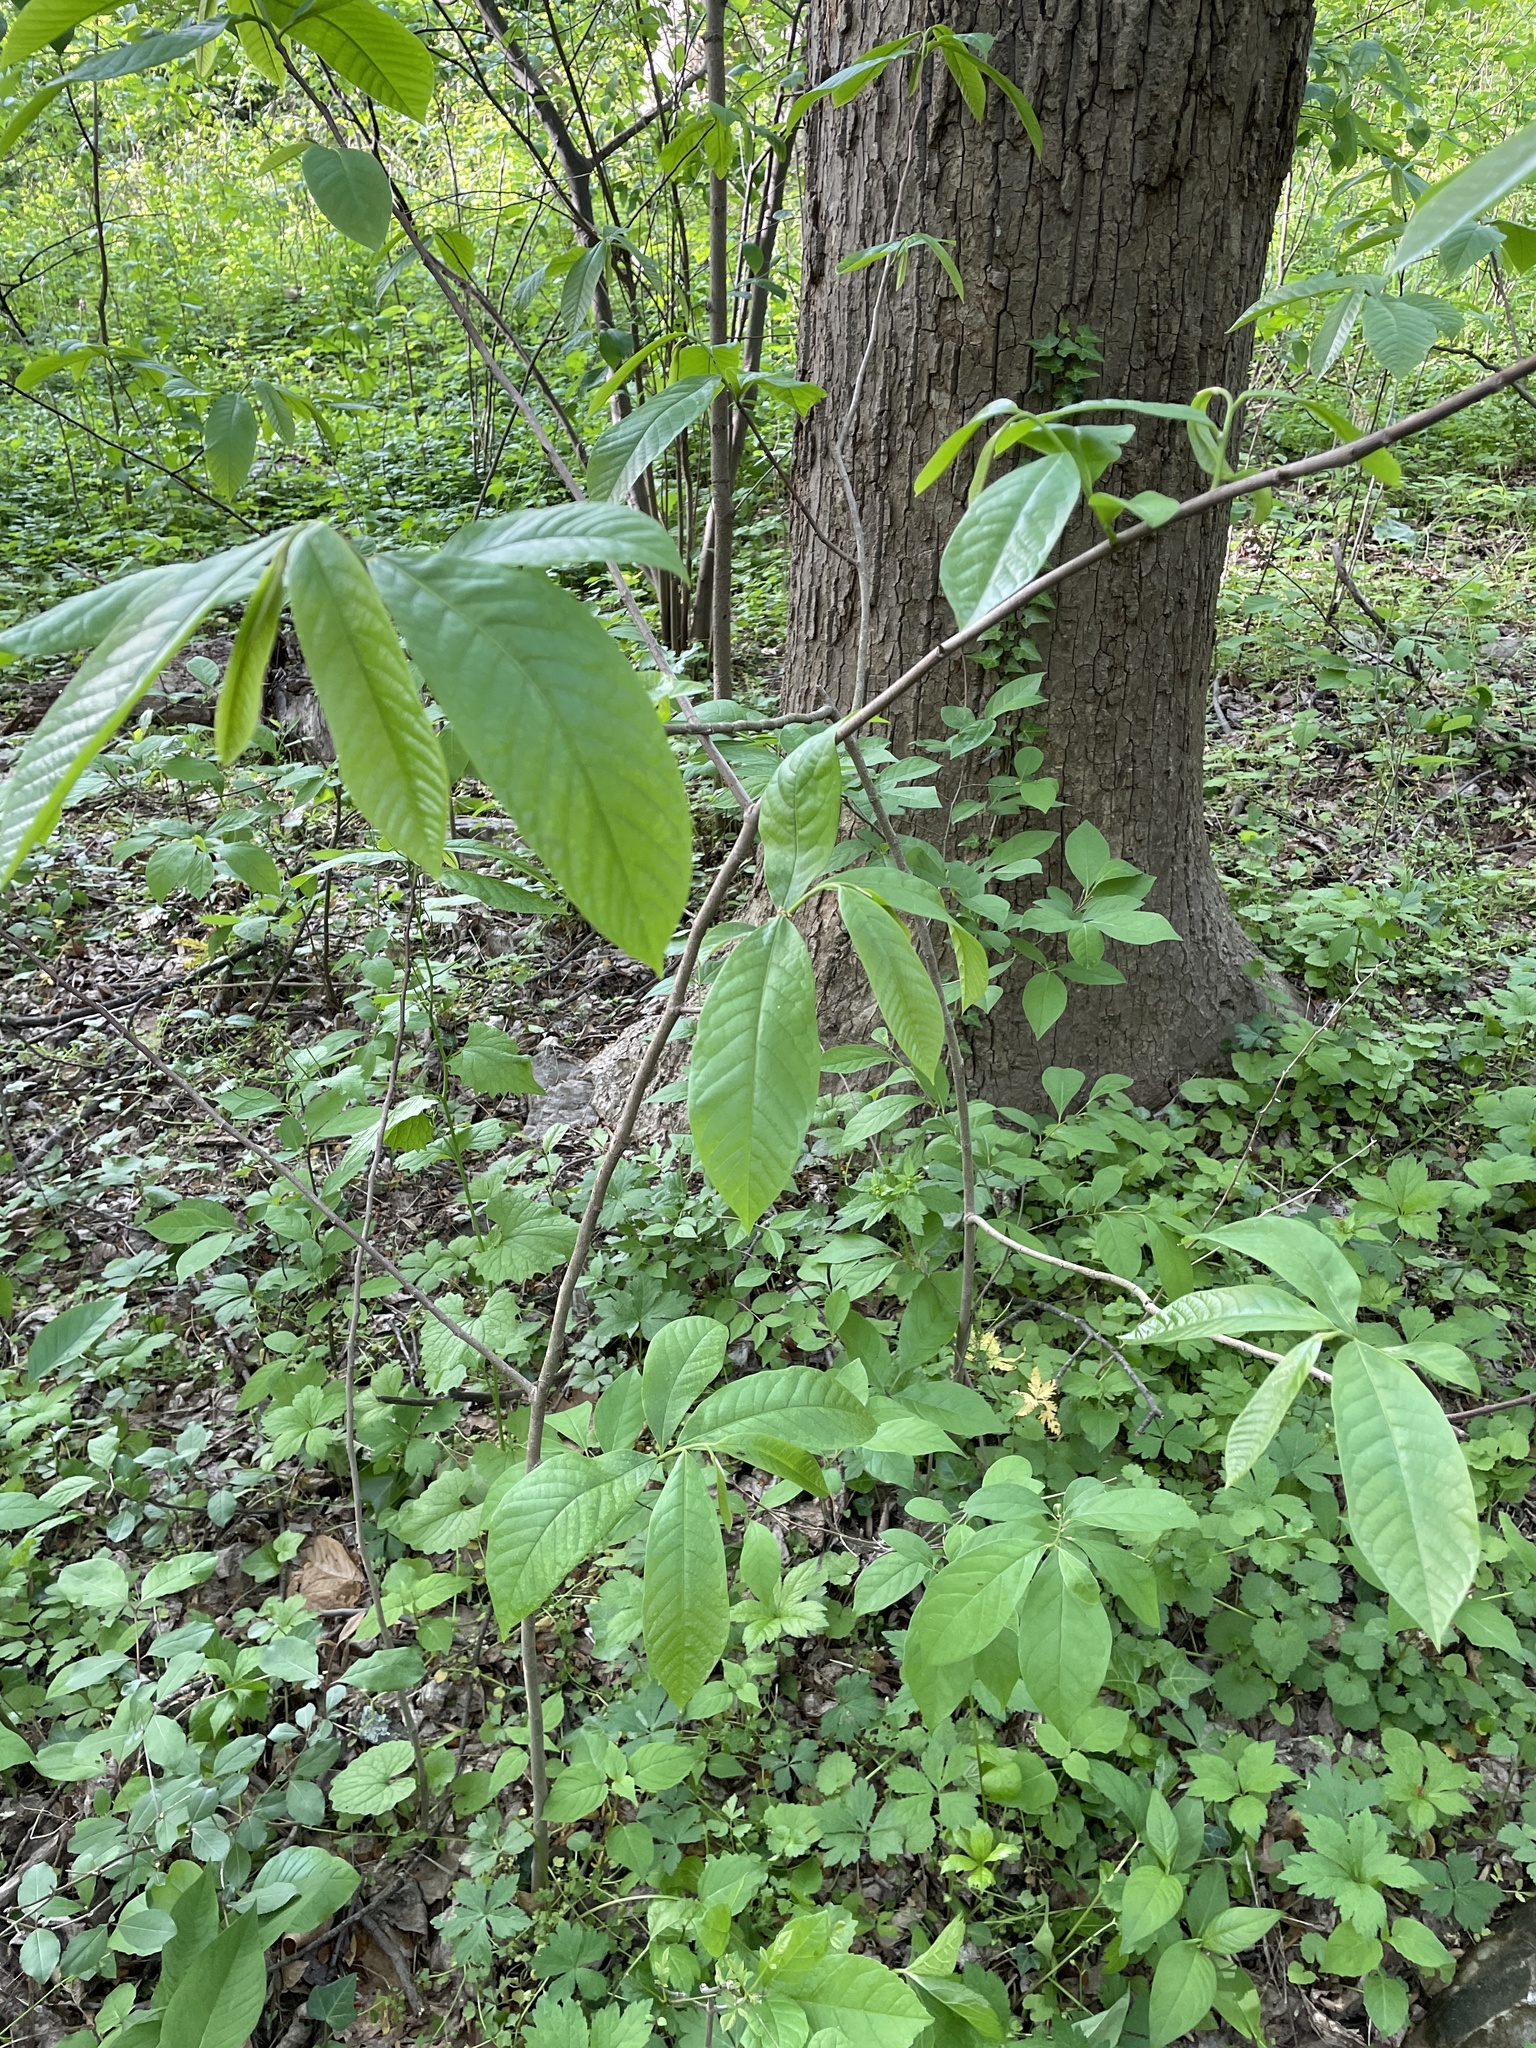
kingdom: Plantae
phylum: Tracheophyta
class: Magnoliopsida
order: Magnoliales
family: Annonaceae
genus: Asimina
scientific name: Asimina triloba
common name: Dog-banana
